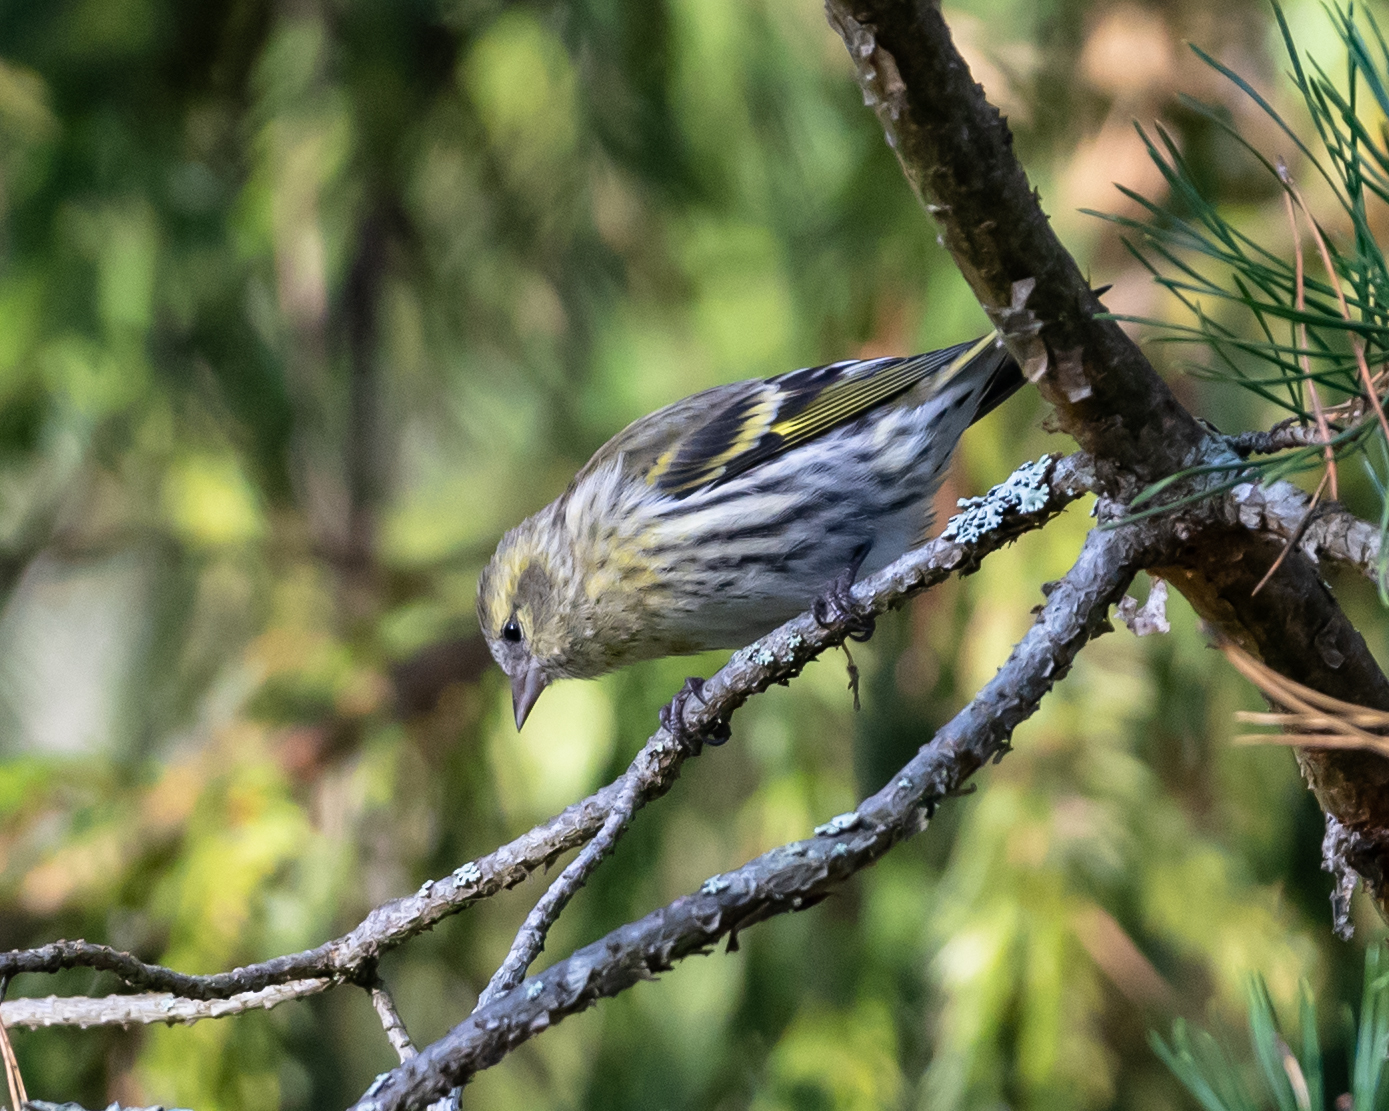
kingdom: Animalia
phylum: Chordata
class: Aves
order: Passeriformes
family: Fringillidae
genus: Spinus
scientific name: Spinus spinus
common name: Eurasian siskin
